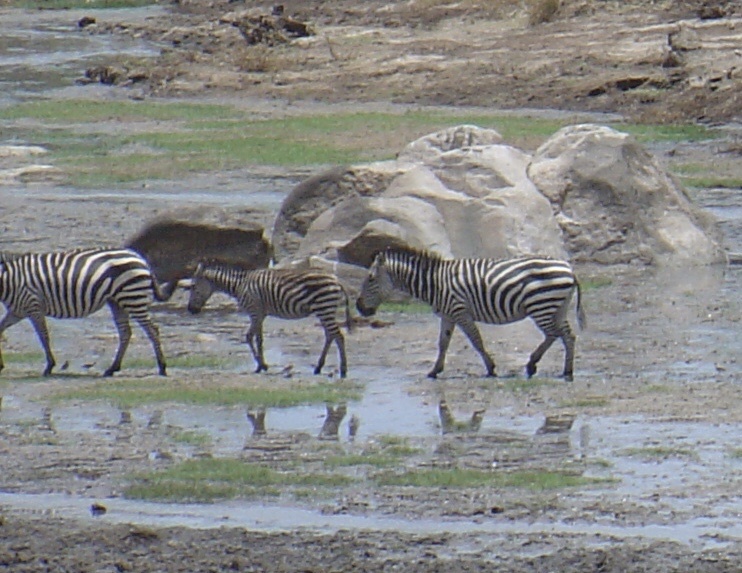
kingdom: Animalia
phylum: Chordata
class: Mammalia
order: Perissodactyla
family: Equidae
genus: Equus
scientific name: Equus quagga
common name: Plains zebra
